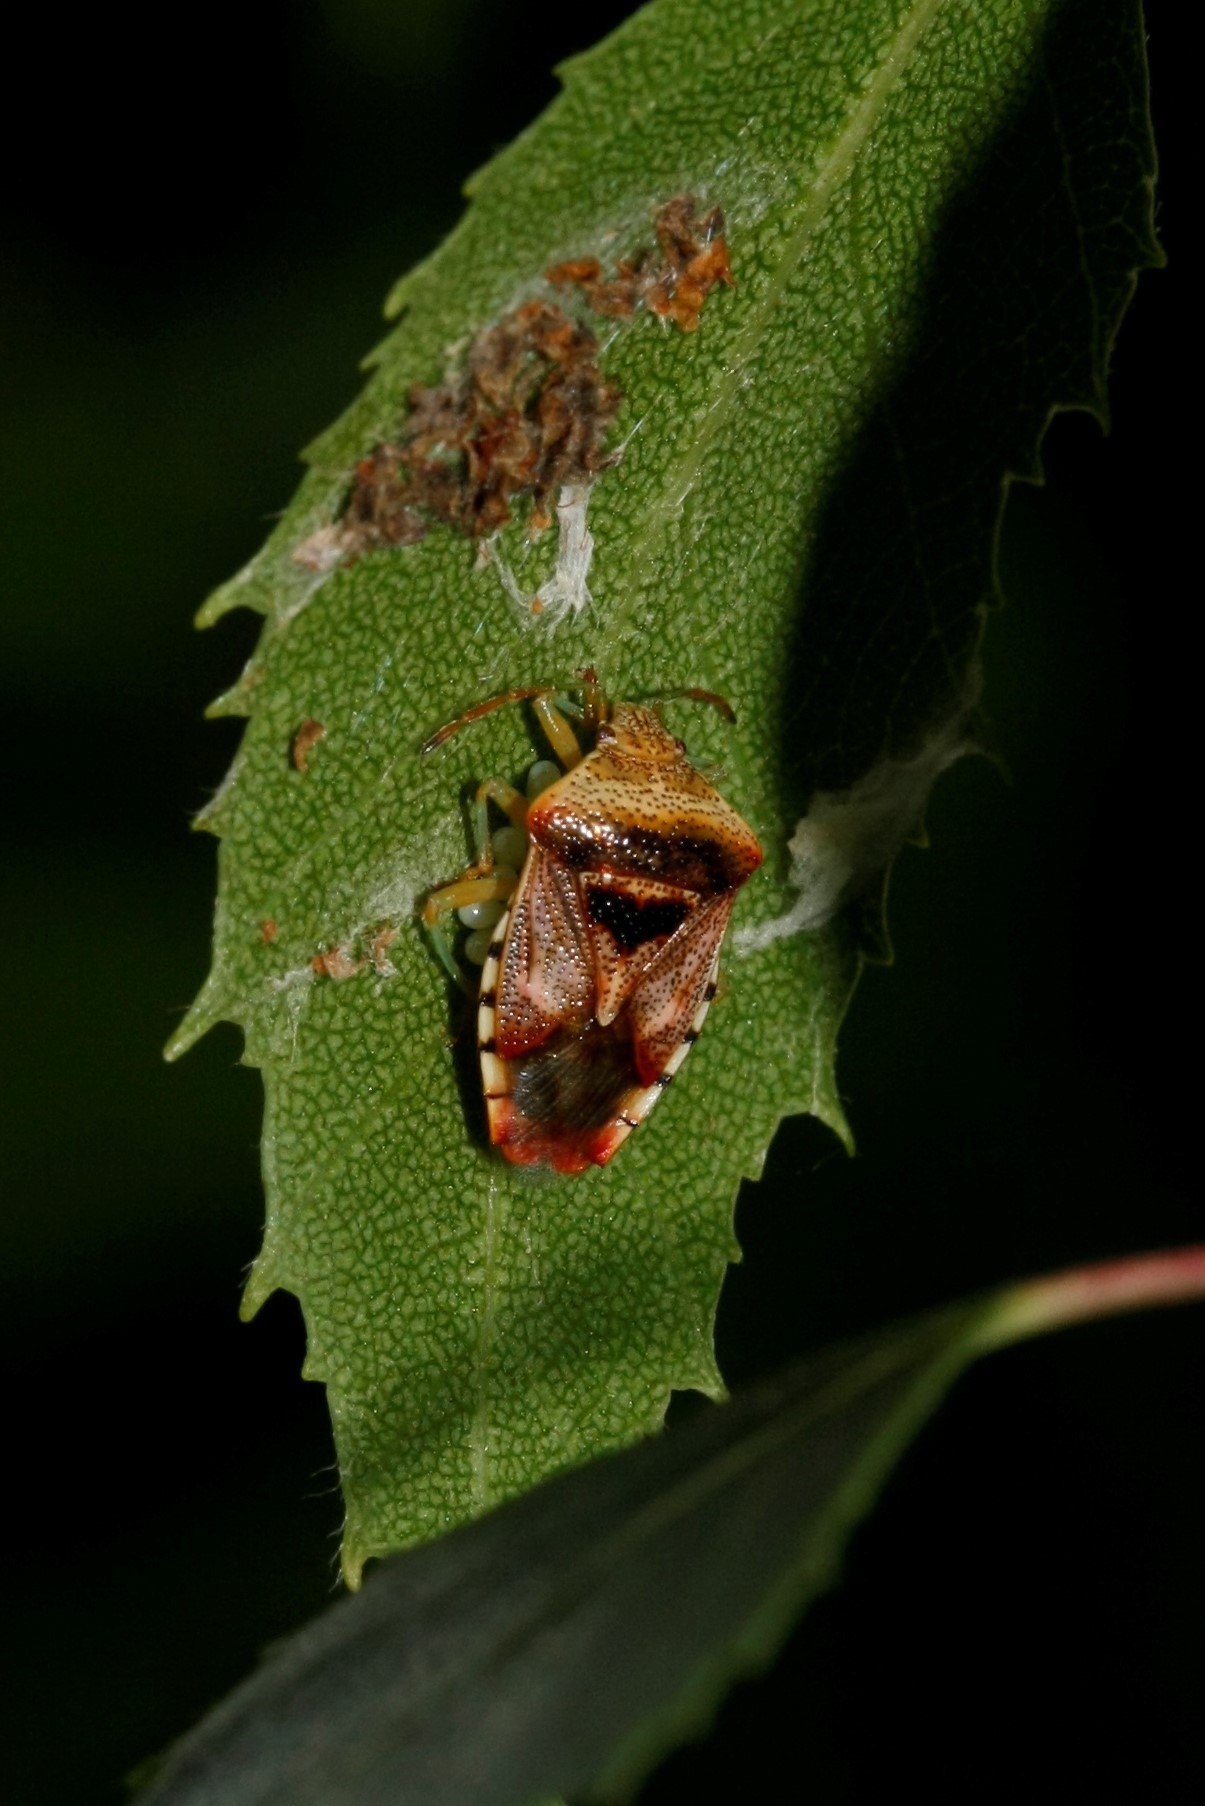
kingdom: Animalia
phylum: Arthropoda
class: Insecta
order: Hemiptera
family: Acanthosomatidae
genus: Elasmucha
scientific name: Elasmucha grisea
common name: Parent bug
